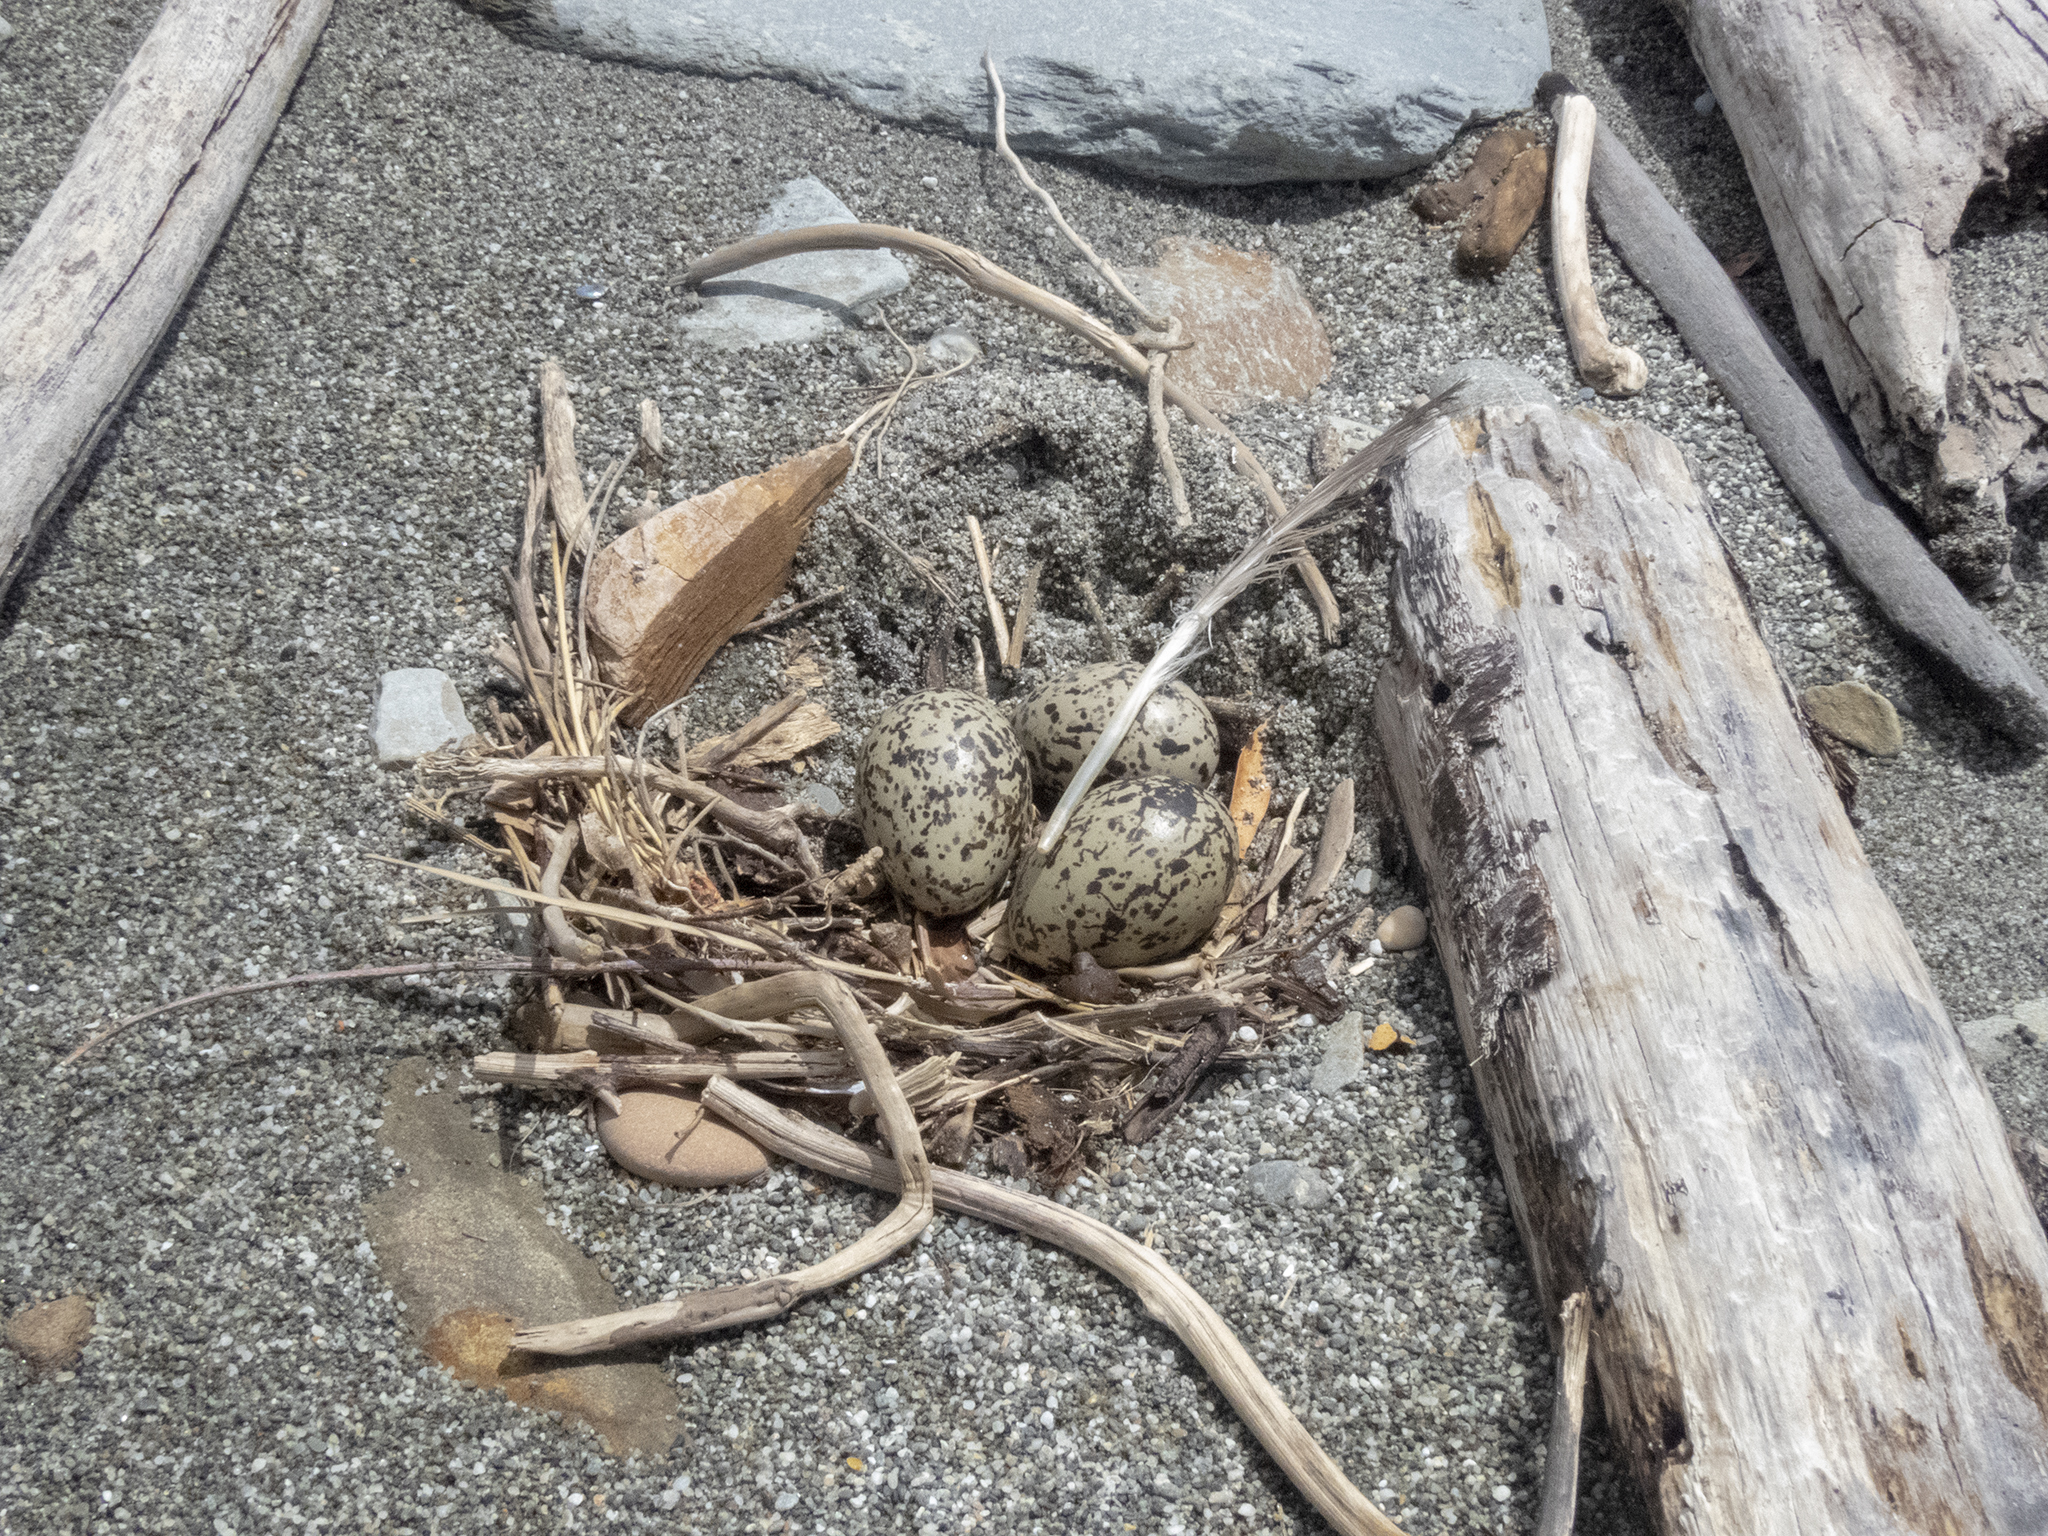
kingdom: Animalia
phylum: Chordata
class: Aves
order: Charadriiformes
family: Haematopodidae
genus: Haematopus
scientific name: Haematopus unicolor
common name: Variable oystercatcher
